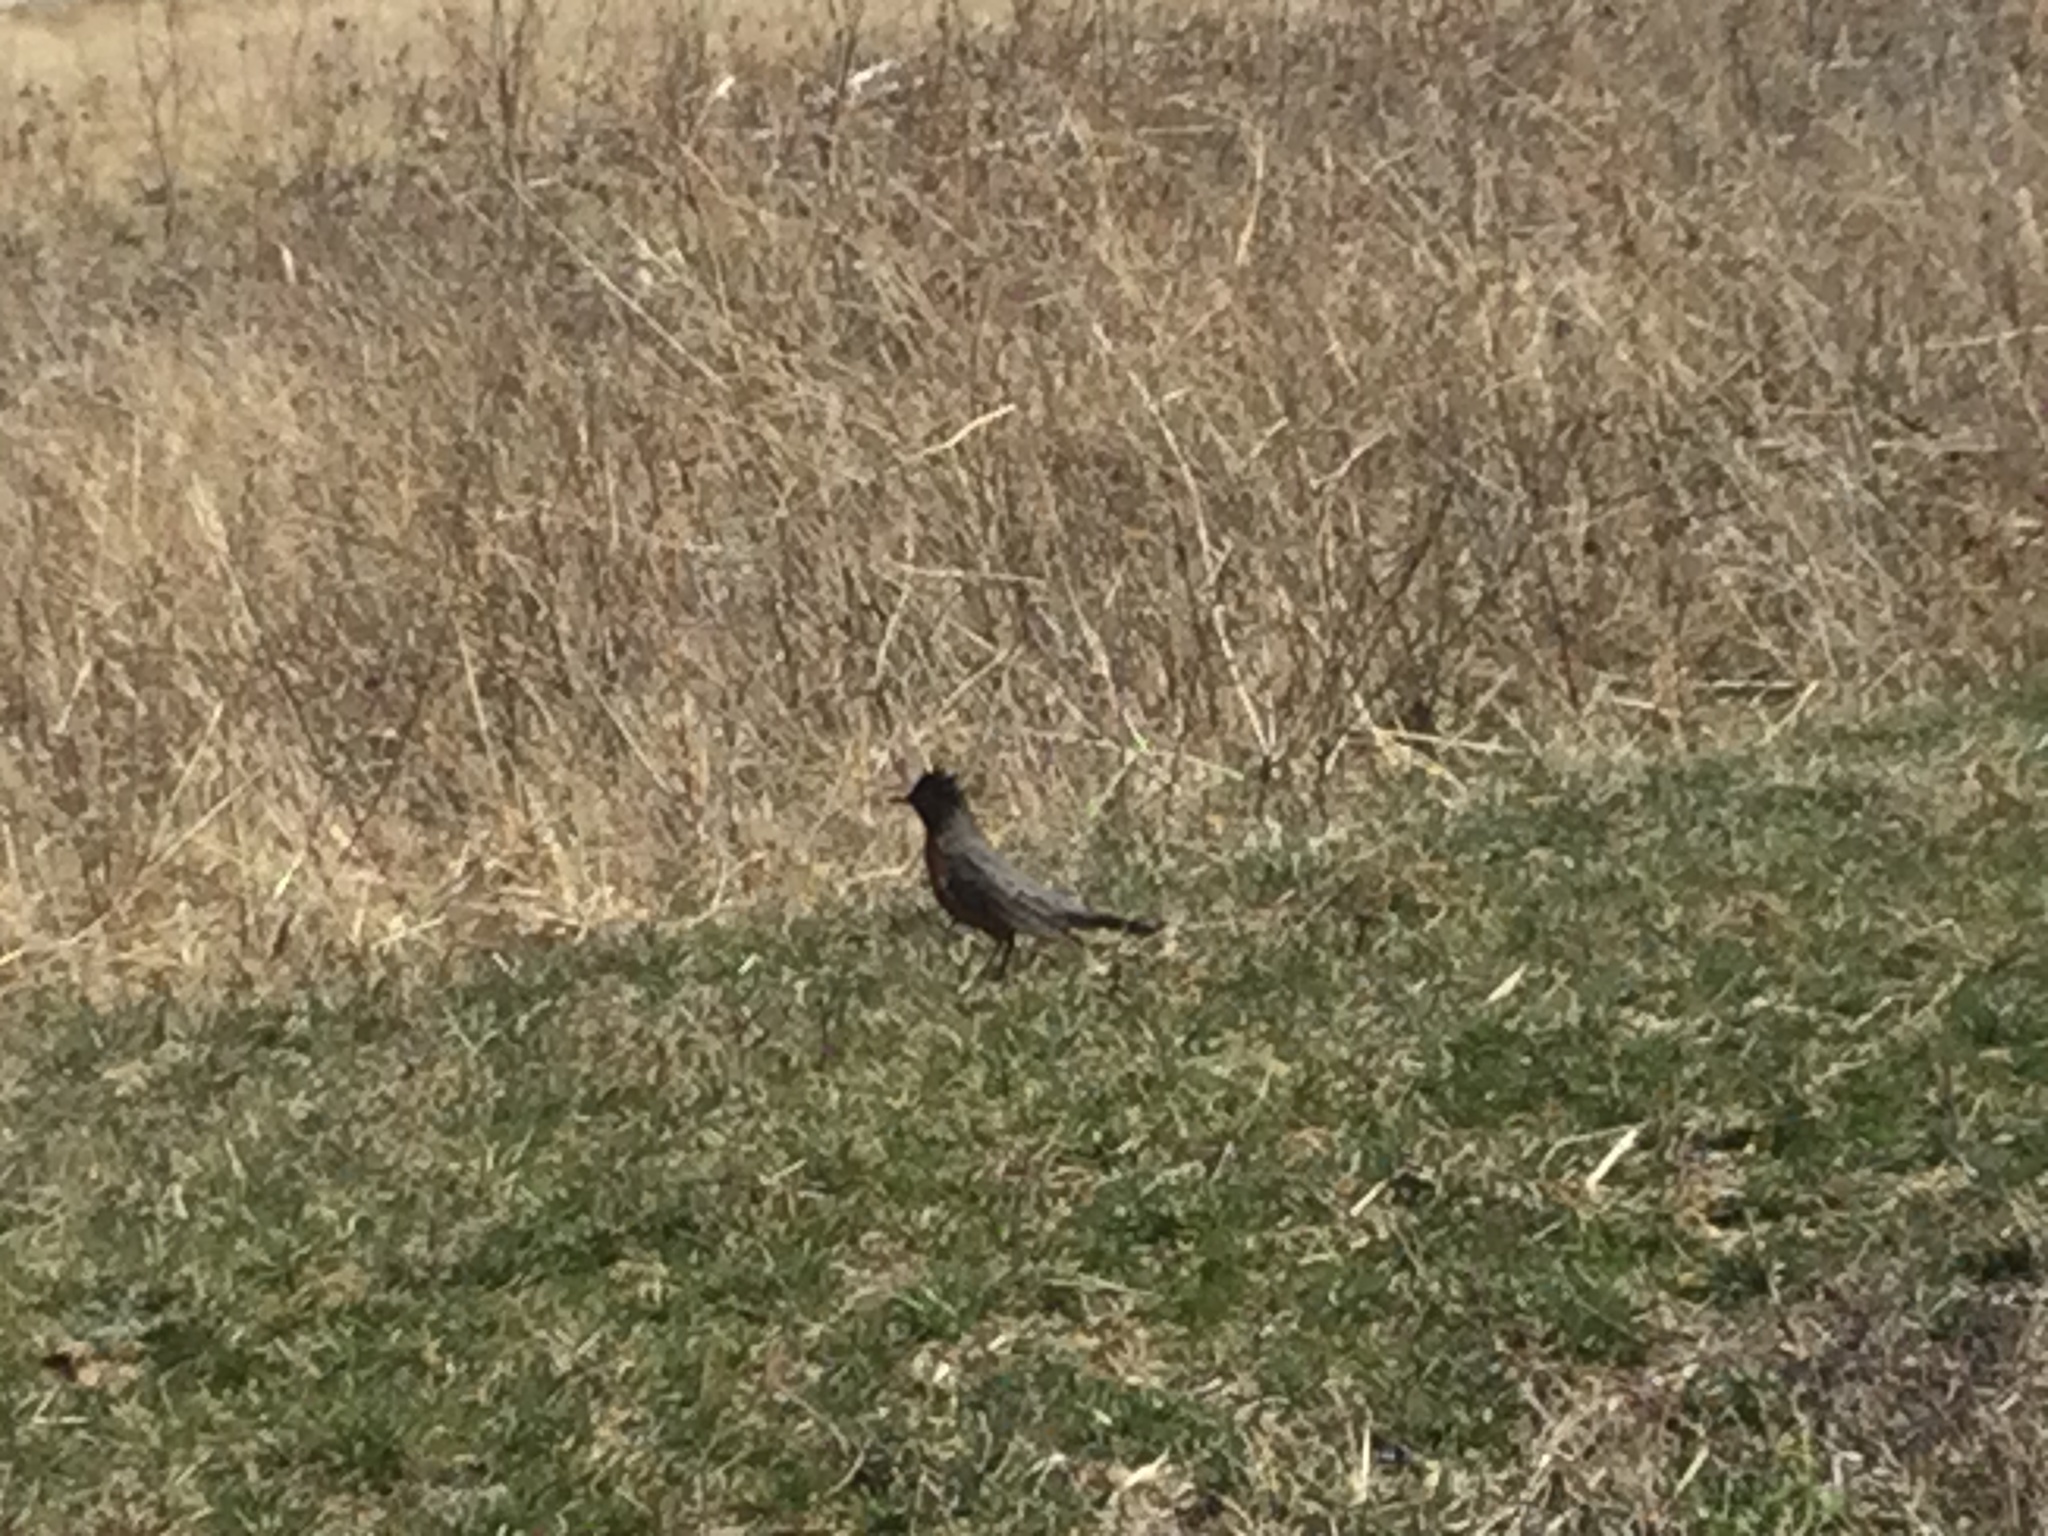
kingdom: Animalia
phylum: Chordata
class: Aves
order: Passeriformes
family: Turdidae
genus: Turdus
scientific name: Turdus migratorius
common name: American robin
